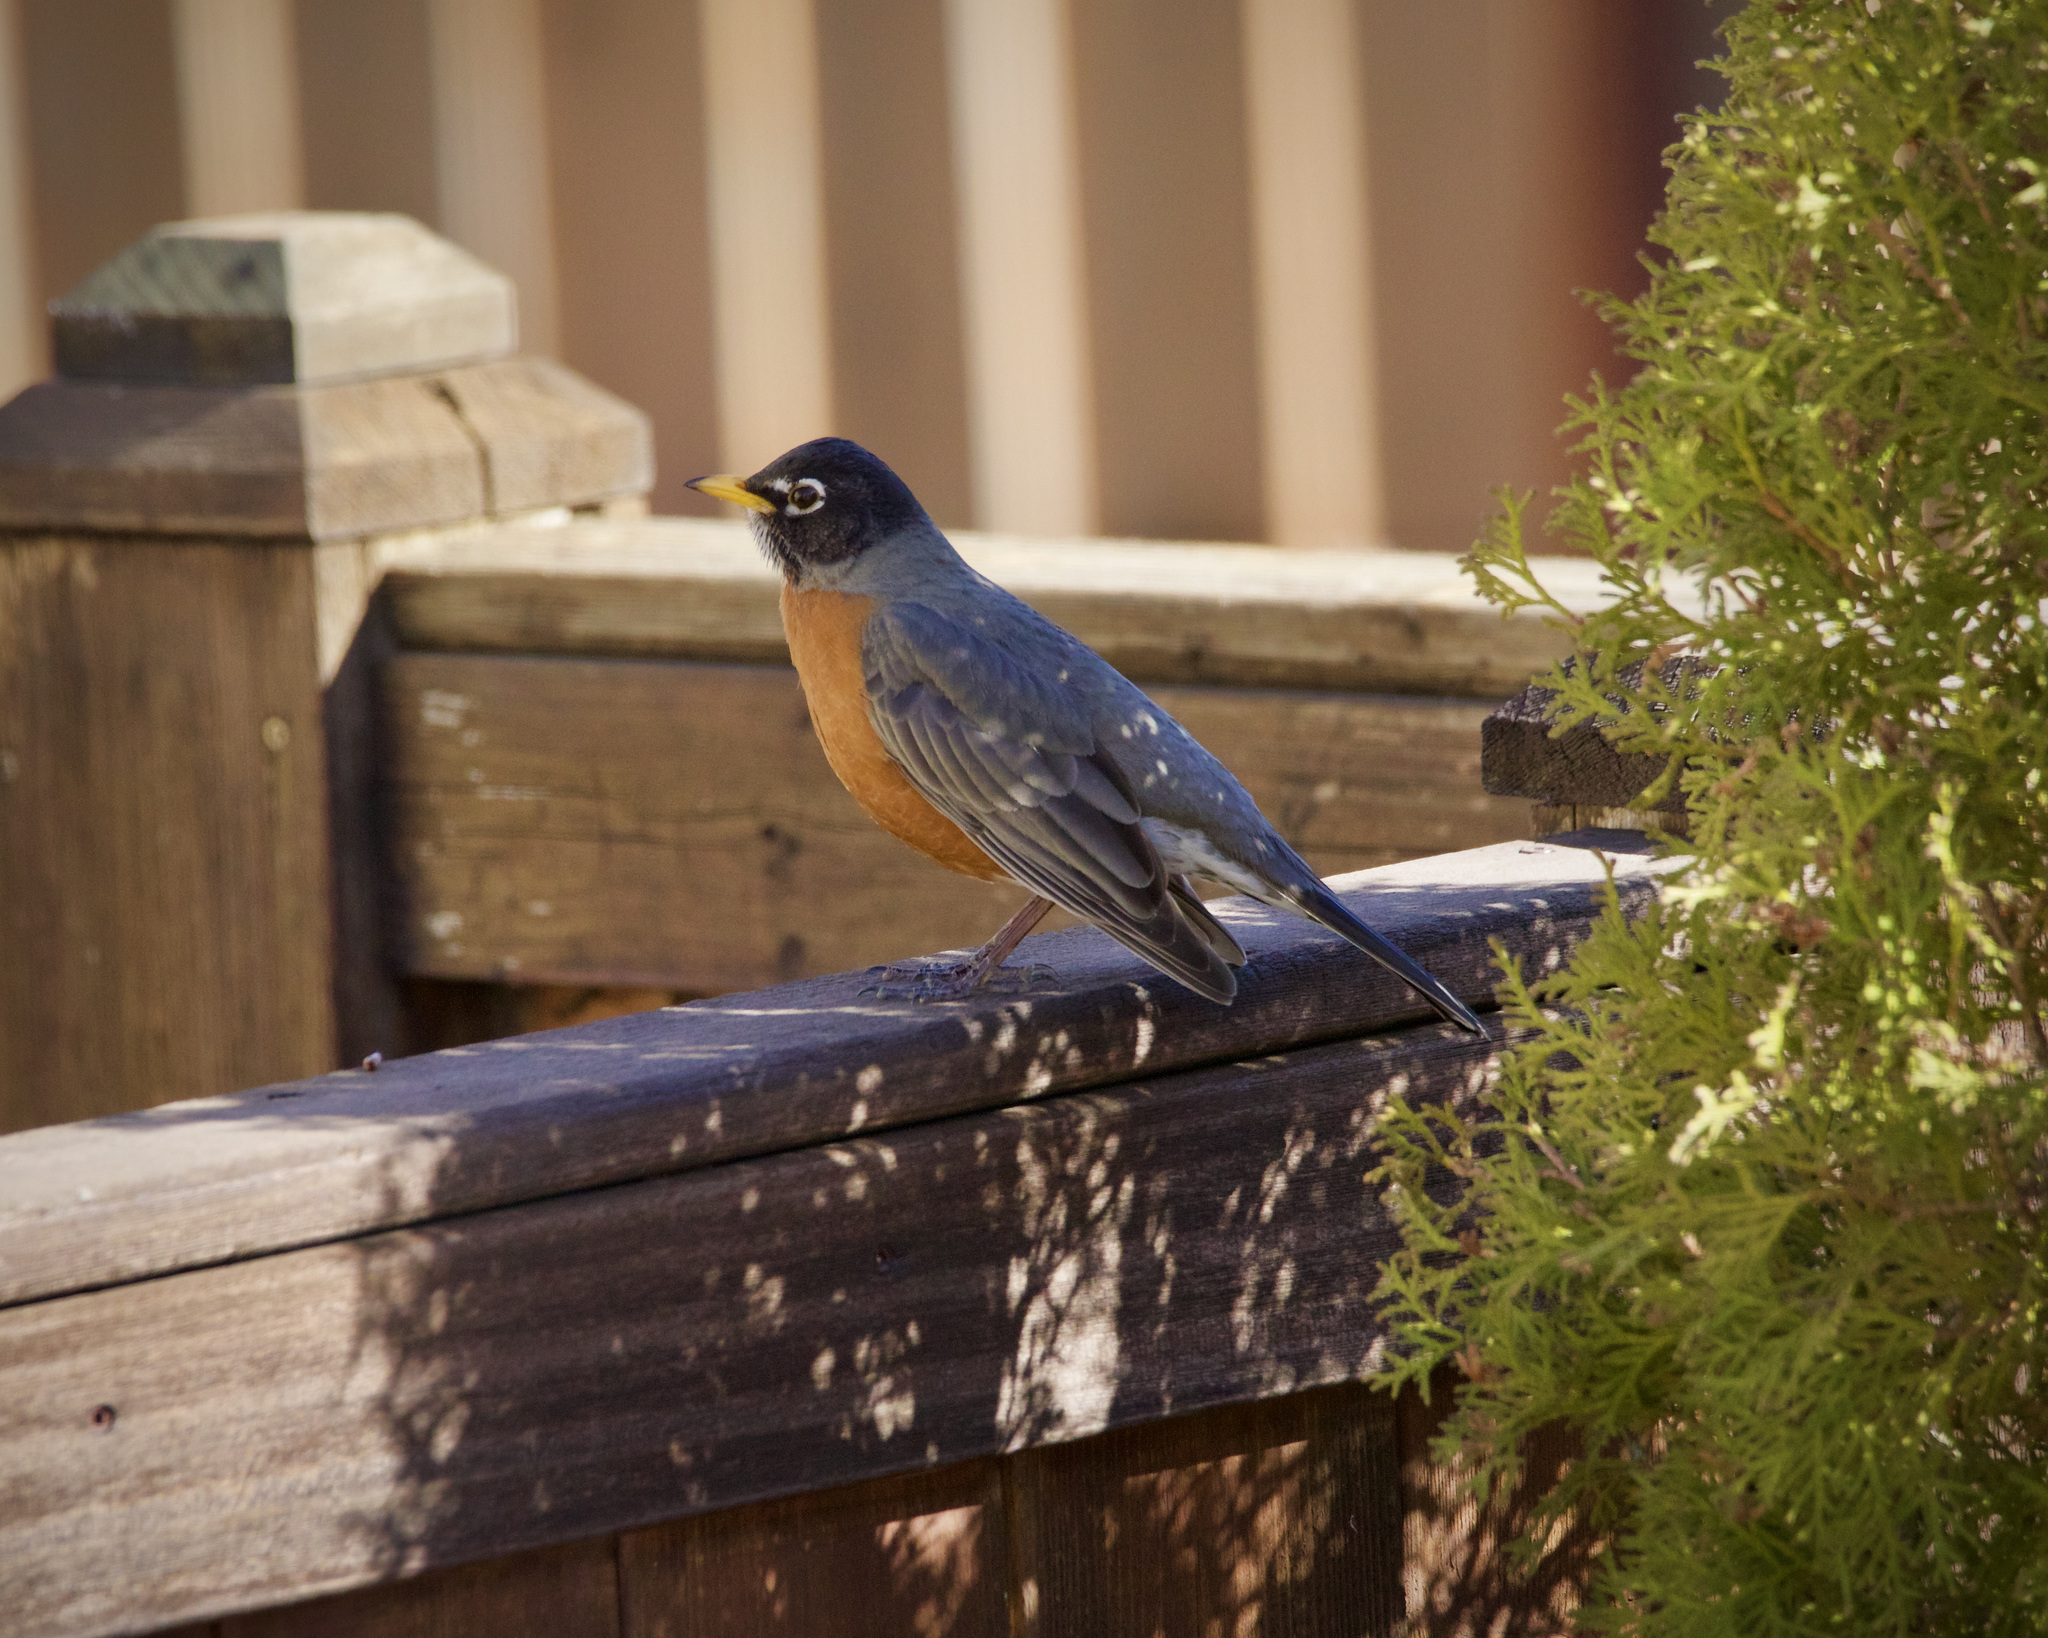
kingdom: Animalia
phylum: Chordata
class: Aves
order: Passeriformes
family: Turdidae
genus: Turdus
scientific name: Turdus migratorius
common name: American robin
